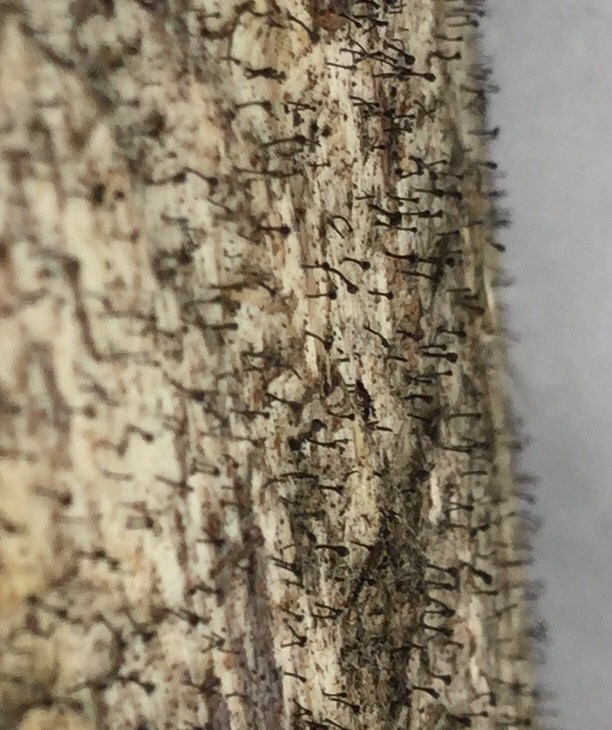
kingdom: Fungi
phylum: Ascomycota
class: Eurotiomycetes
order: Mycocaliciales
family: Mycocaliciaceae
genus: Chaenothecopsis
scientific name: Chaenothecopsis debilis
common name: King pin
